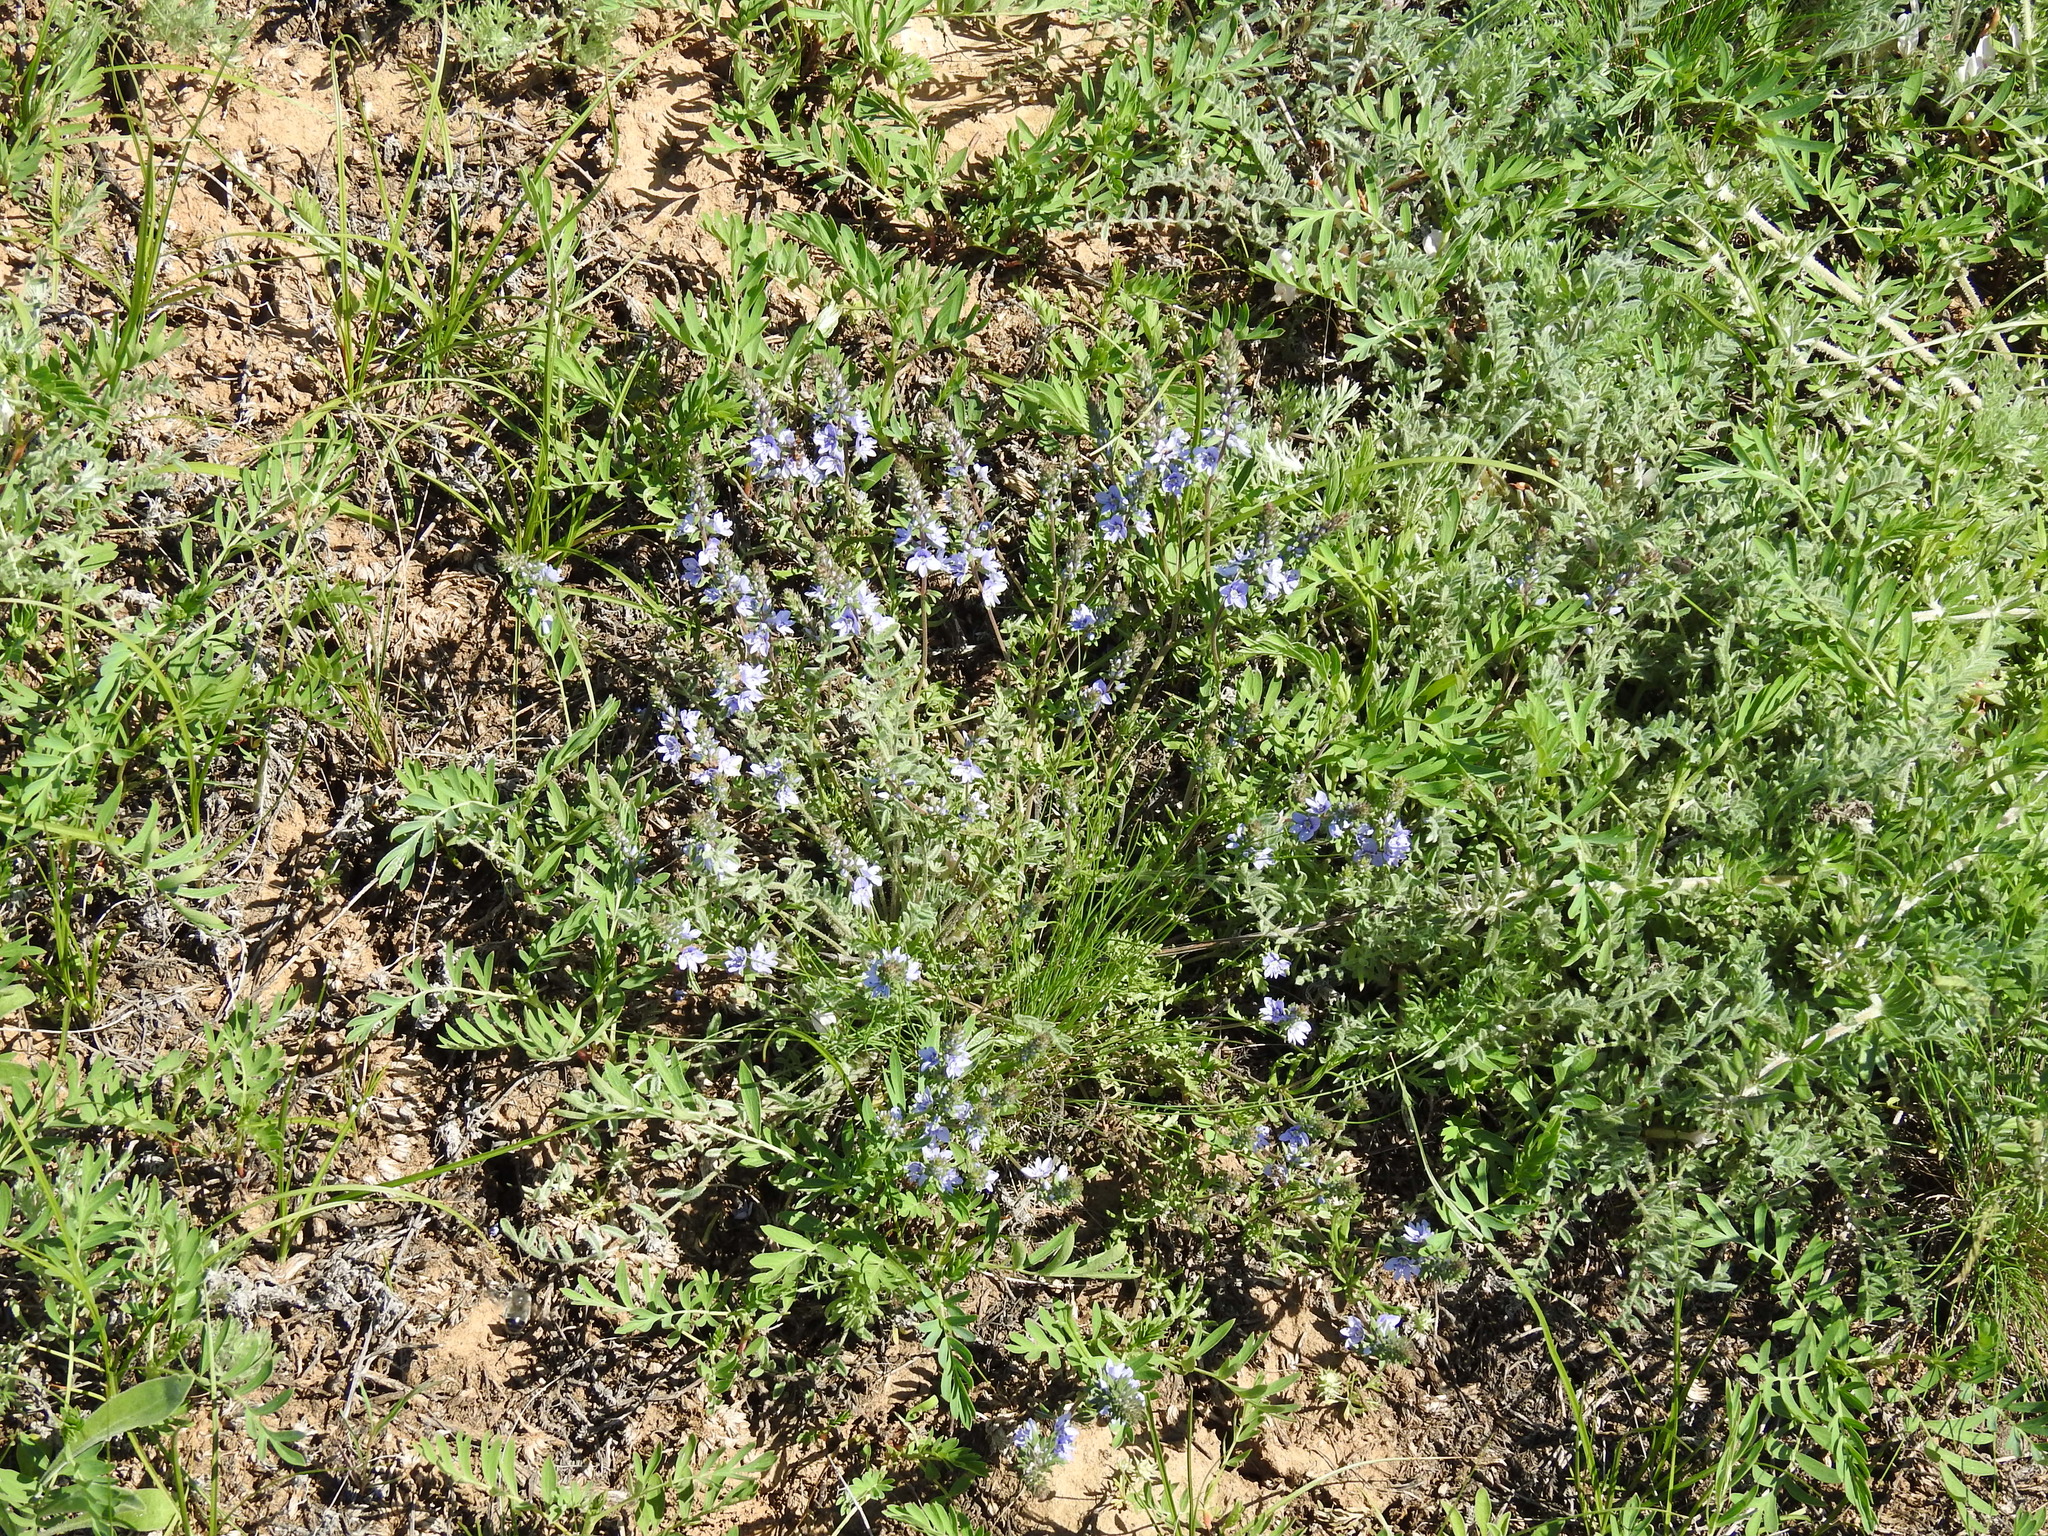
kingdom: Plantae
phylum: Tracheophyta
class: Magnoliopsida
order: Lamiales
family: Plantaginaceae
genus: Veronica
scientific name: Veronica multifida
